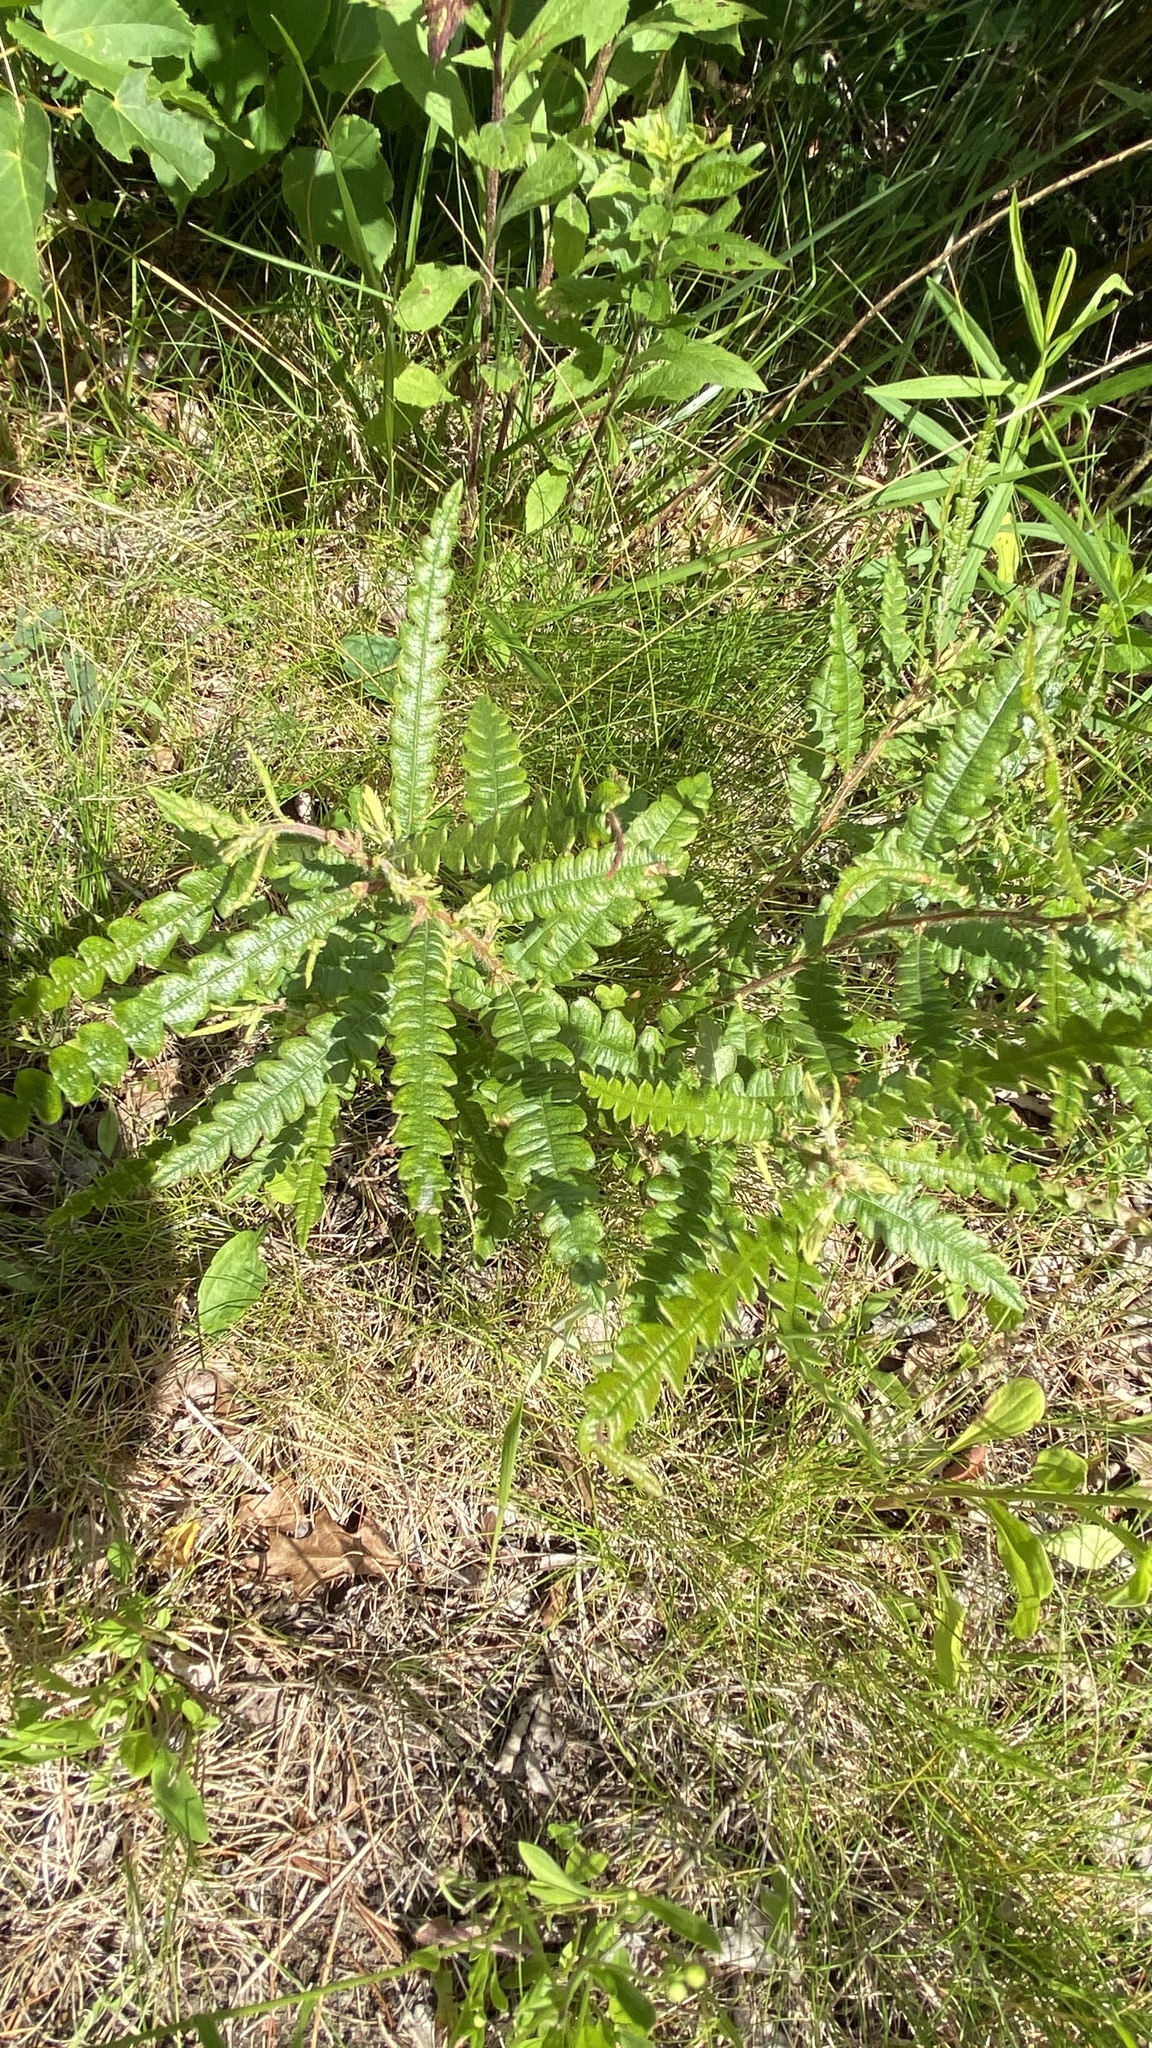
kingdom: Plantae
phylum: Tracheophyta
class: Magnoliopsida
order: Fagales
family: Myricaceae
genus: Comptonia
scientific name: Comptonia peregrina
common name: Sweet-fern
